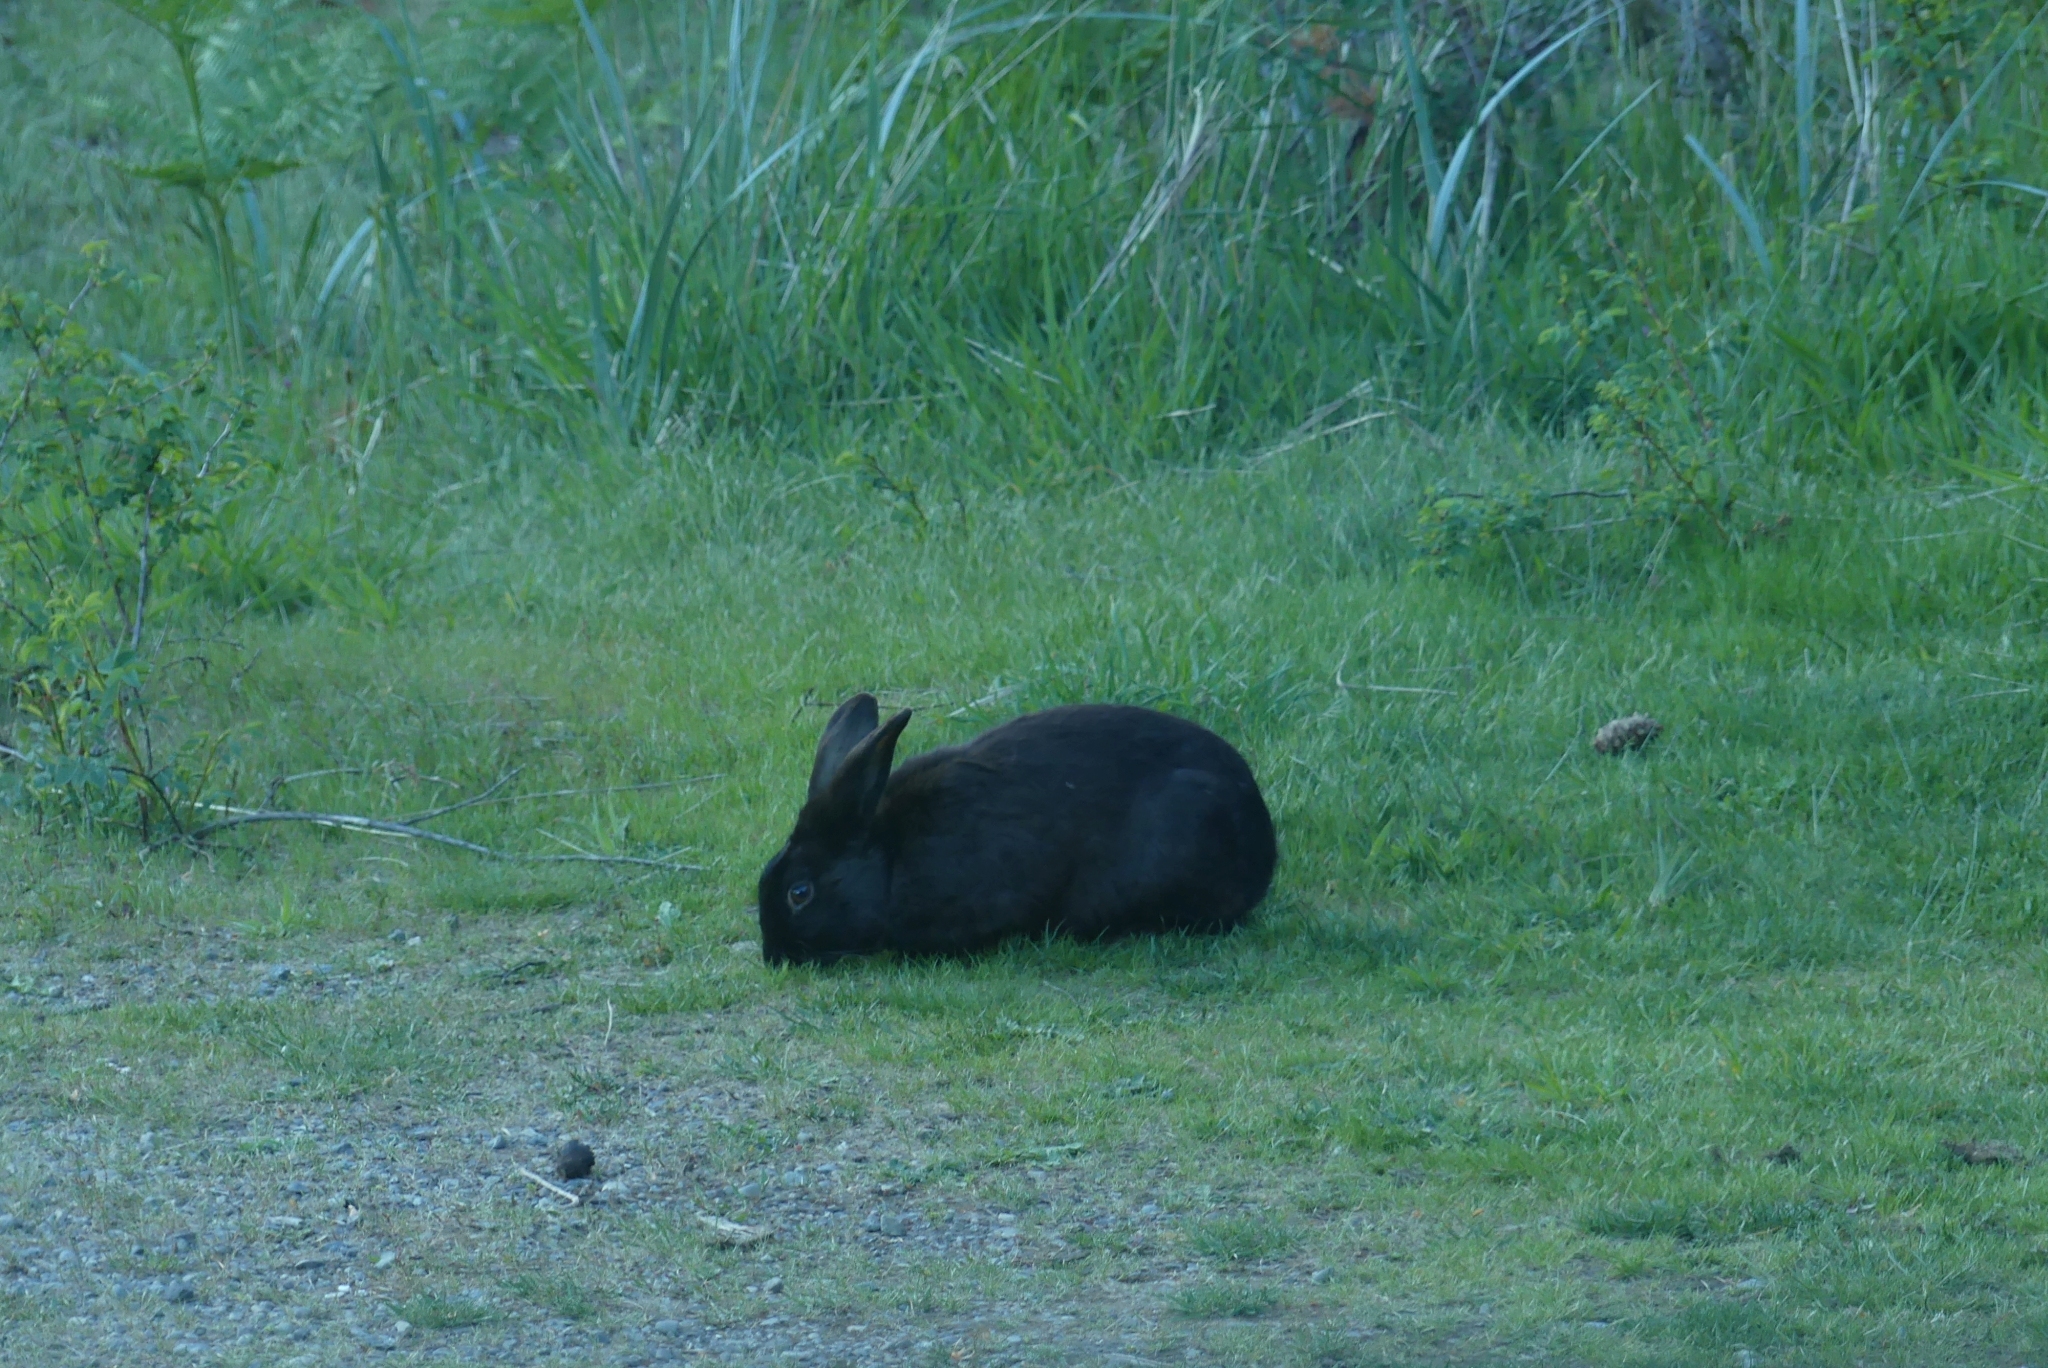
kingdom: Animalia
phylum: Chordata
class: Mammalia
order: Lagomorpha
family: Leporidae
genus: Oryctolagus
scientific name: Oryctolagus cuniculus
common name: European rabbit
